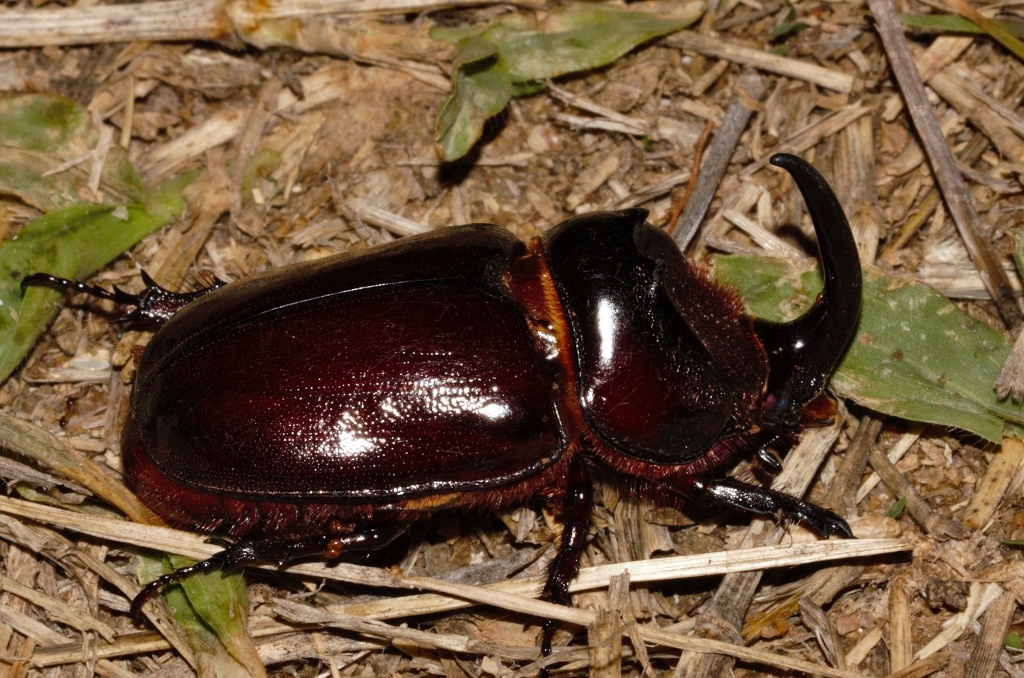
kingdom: Animalia
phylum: Arthropoda
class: Insecta
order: Coleoptera
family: Scarabaeidae
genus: Oryctes
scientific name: Oryctes boas
